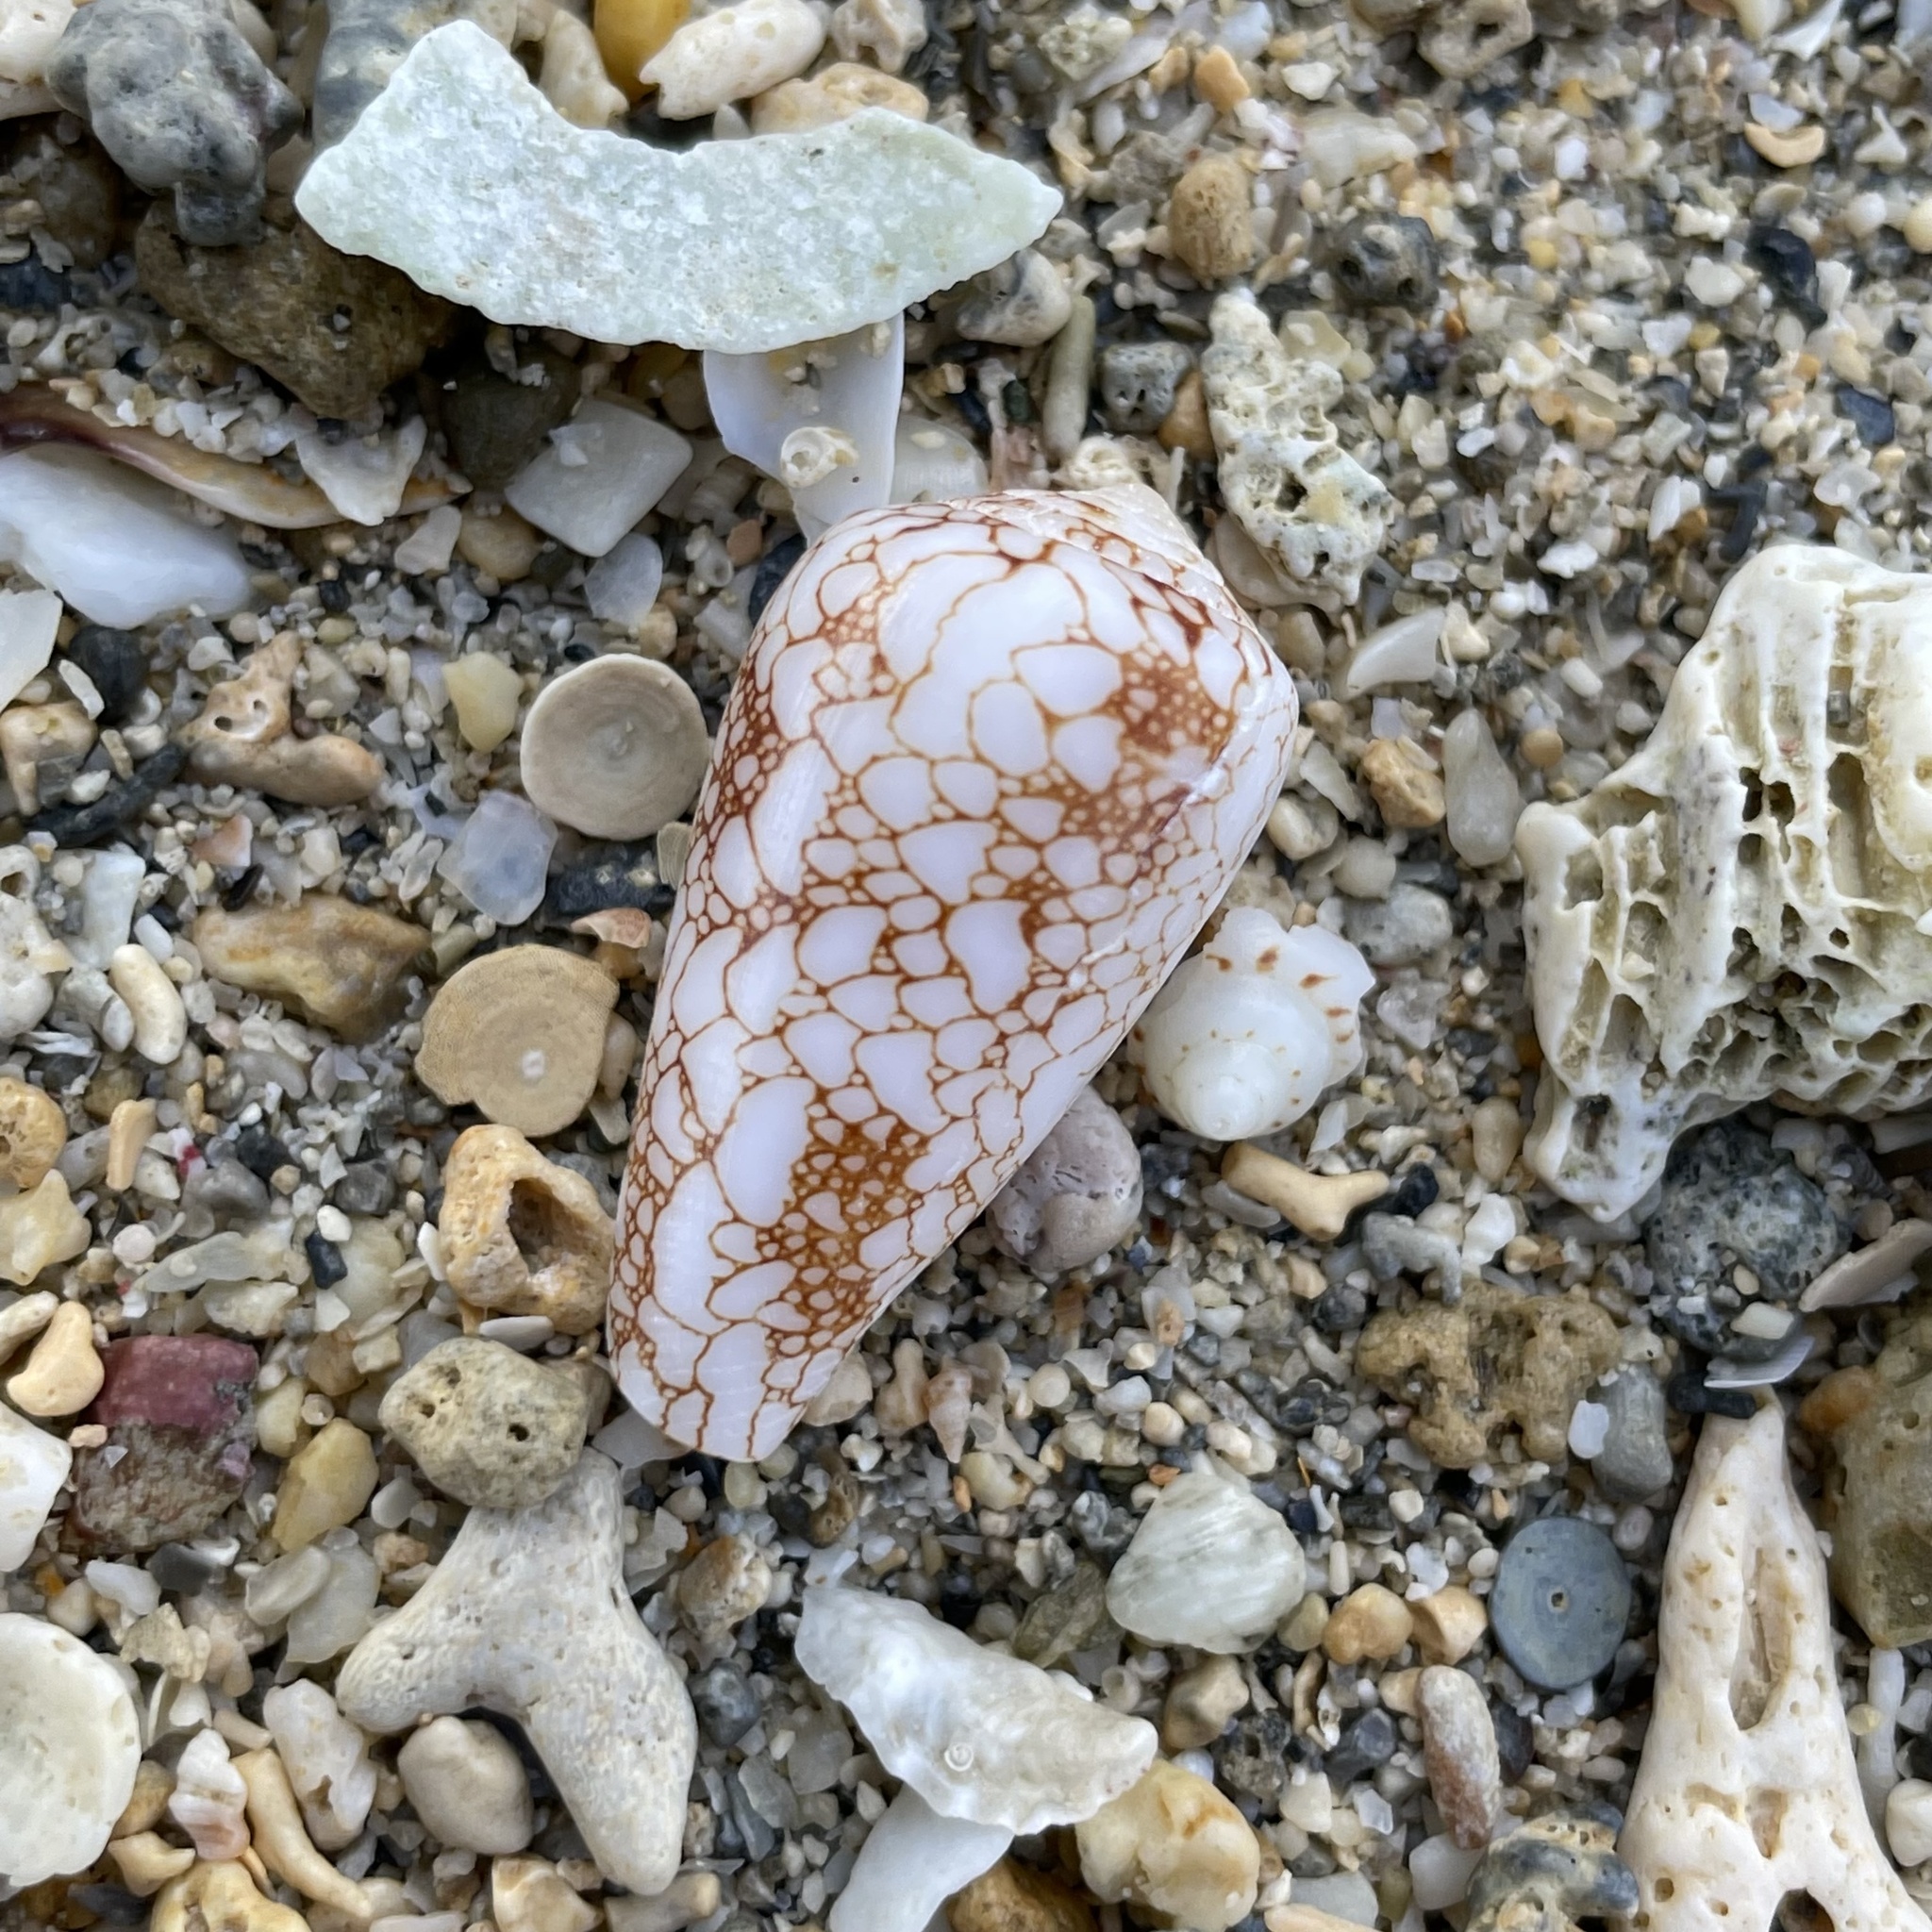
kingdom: Animalia
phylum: Mollusca
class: Gastropoda
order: Neogastropoda
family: Conidae
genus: Conus
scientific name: Conus omaria
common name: Omaria cone
